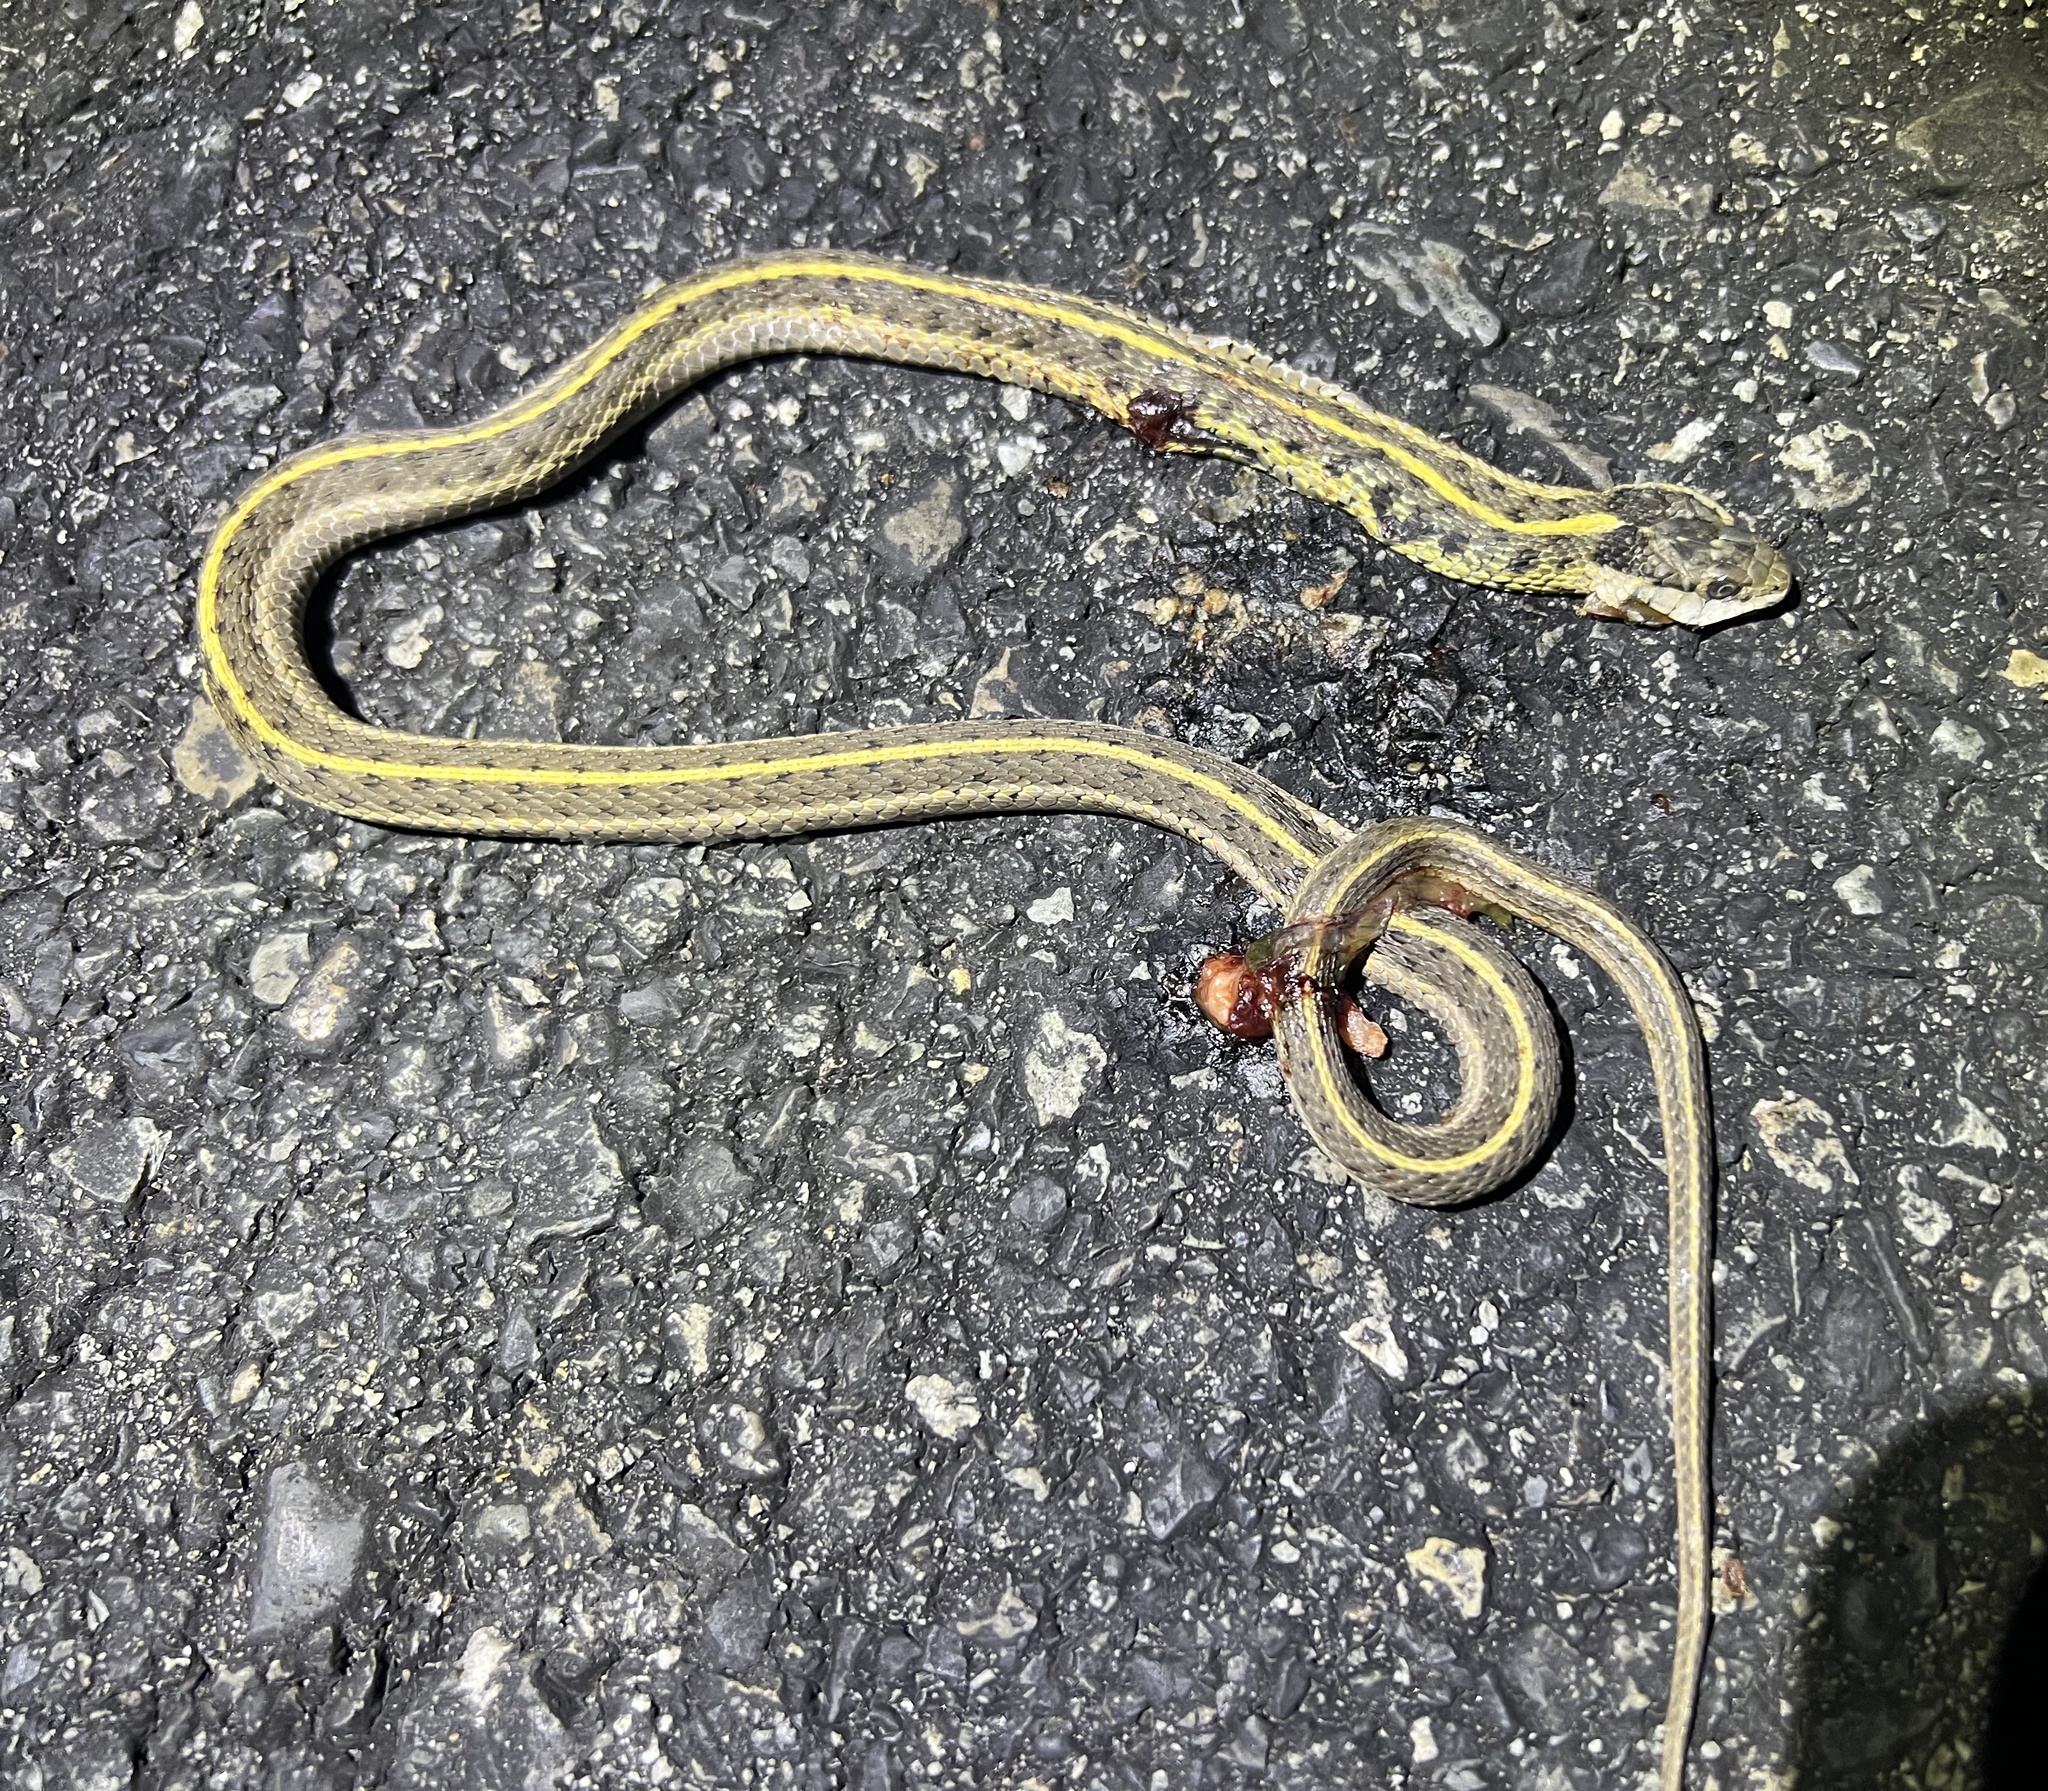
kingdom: Animalia
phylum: Chordata
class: Squamata
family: Colubridae
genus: Thamnophis
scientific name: Thamnophis elegans
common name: Western terrestrial garter snake
